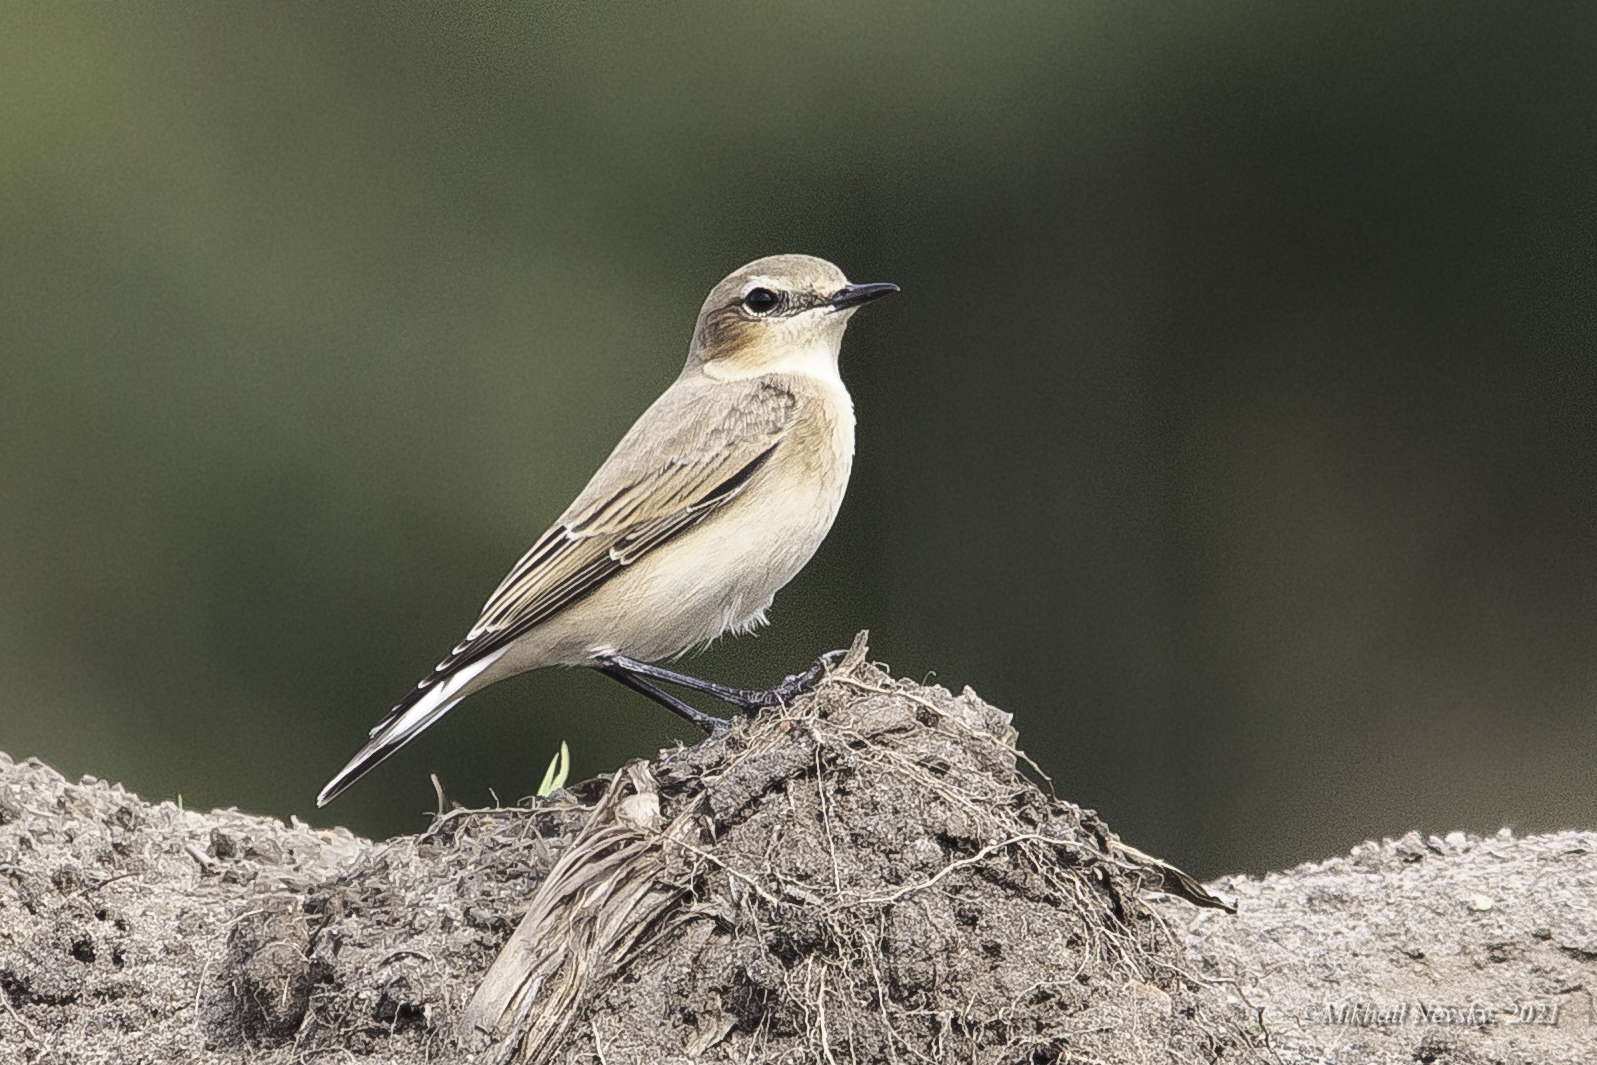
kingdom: Animalia
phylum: Chordata
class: Aves
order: Passeriformes
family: Muscicapidae
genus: Oenanthe
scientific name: Oenanthe oenanthe
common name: Northern wheatear
